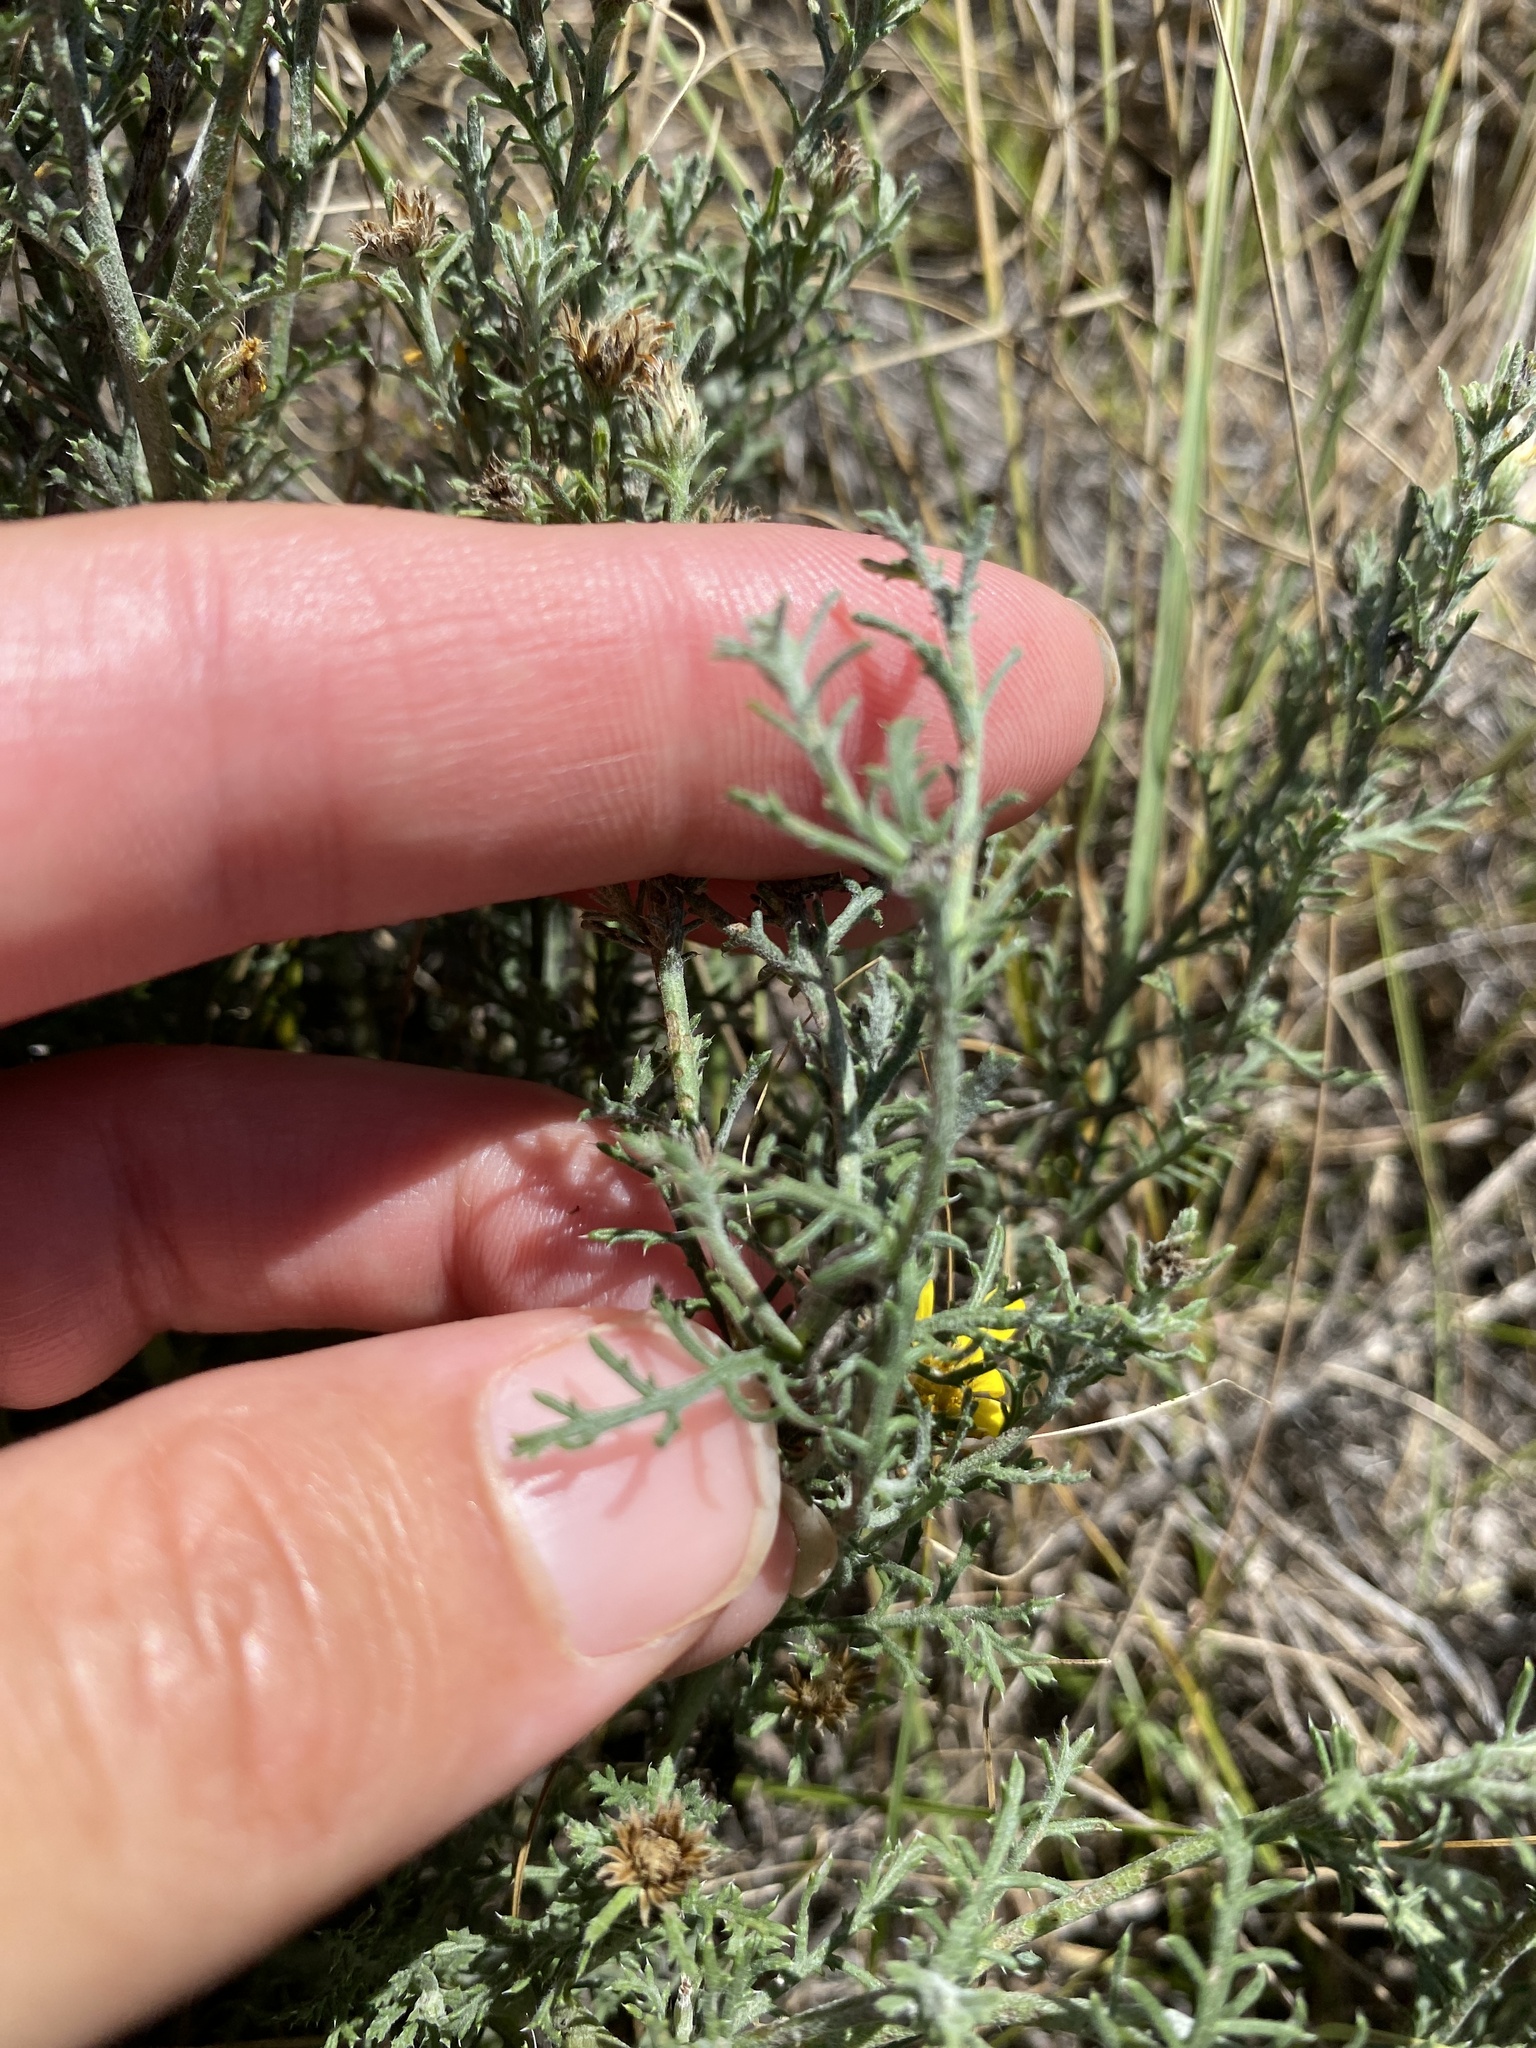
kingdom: Plantae
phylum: Tracheophyta
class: Magnoliopsida
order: Asterales
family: Asteraceae
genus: Xanthisma
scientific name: Xanthisma spinulosum
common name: Spiny goldenweed
